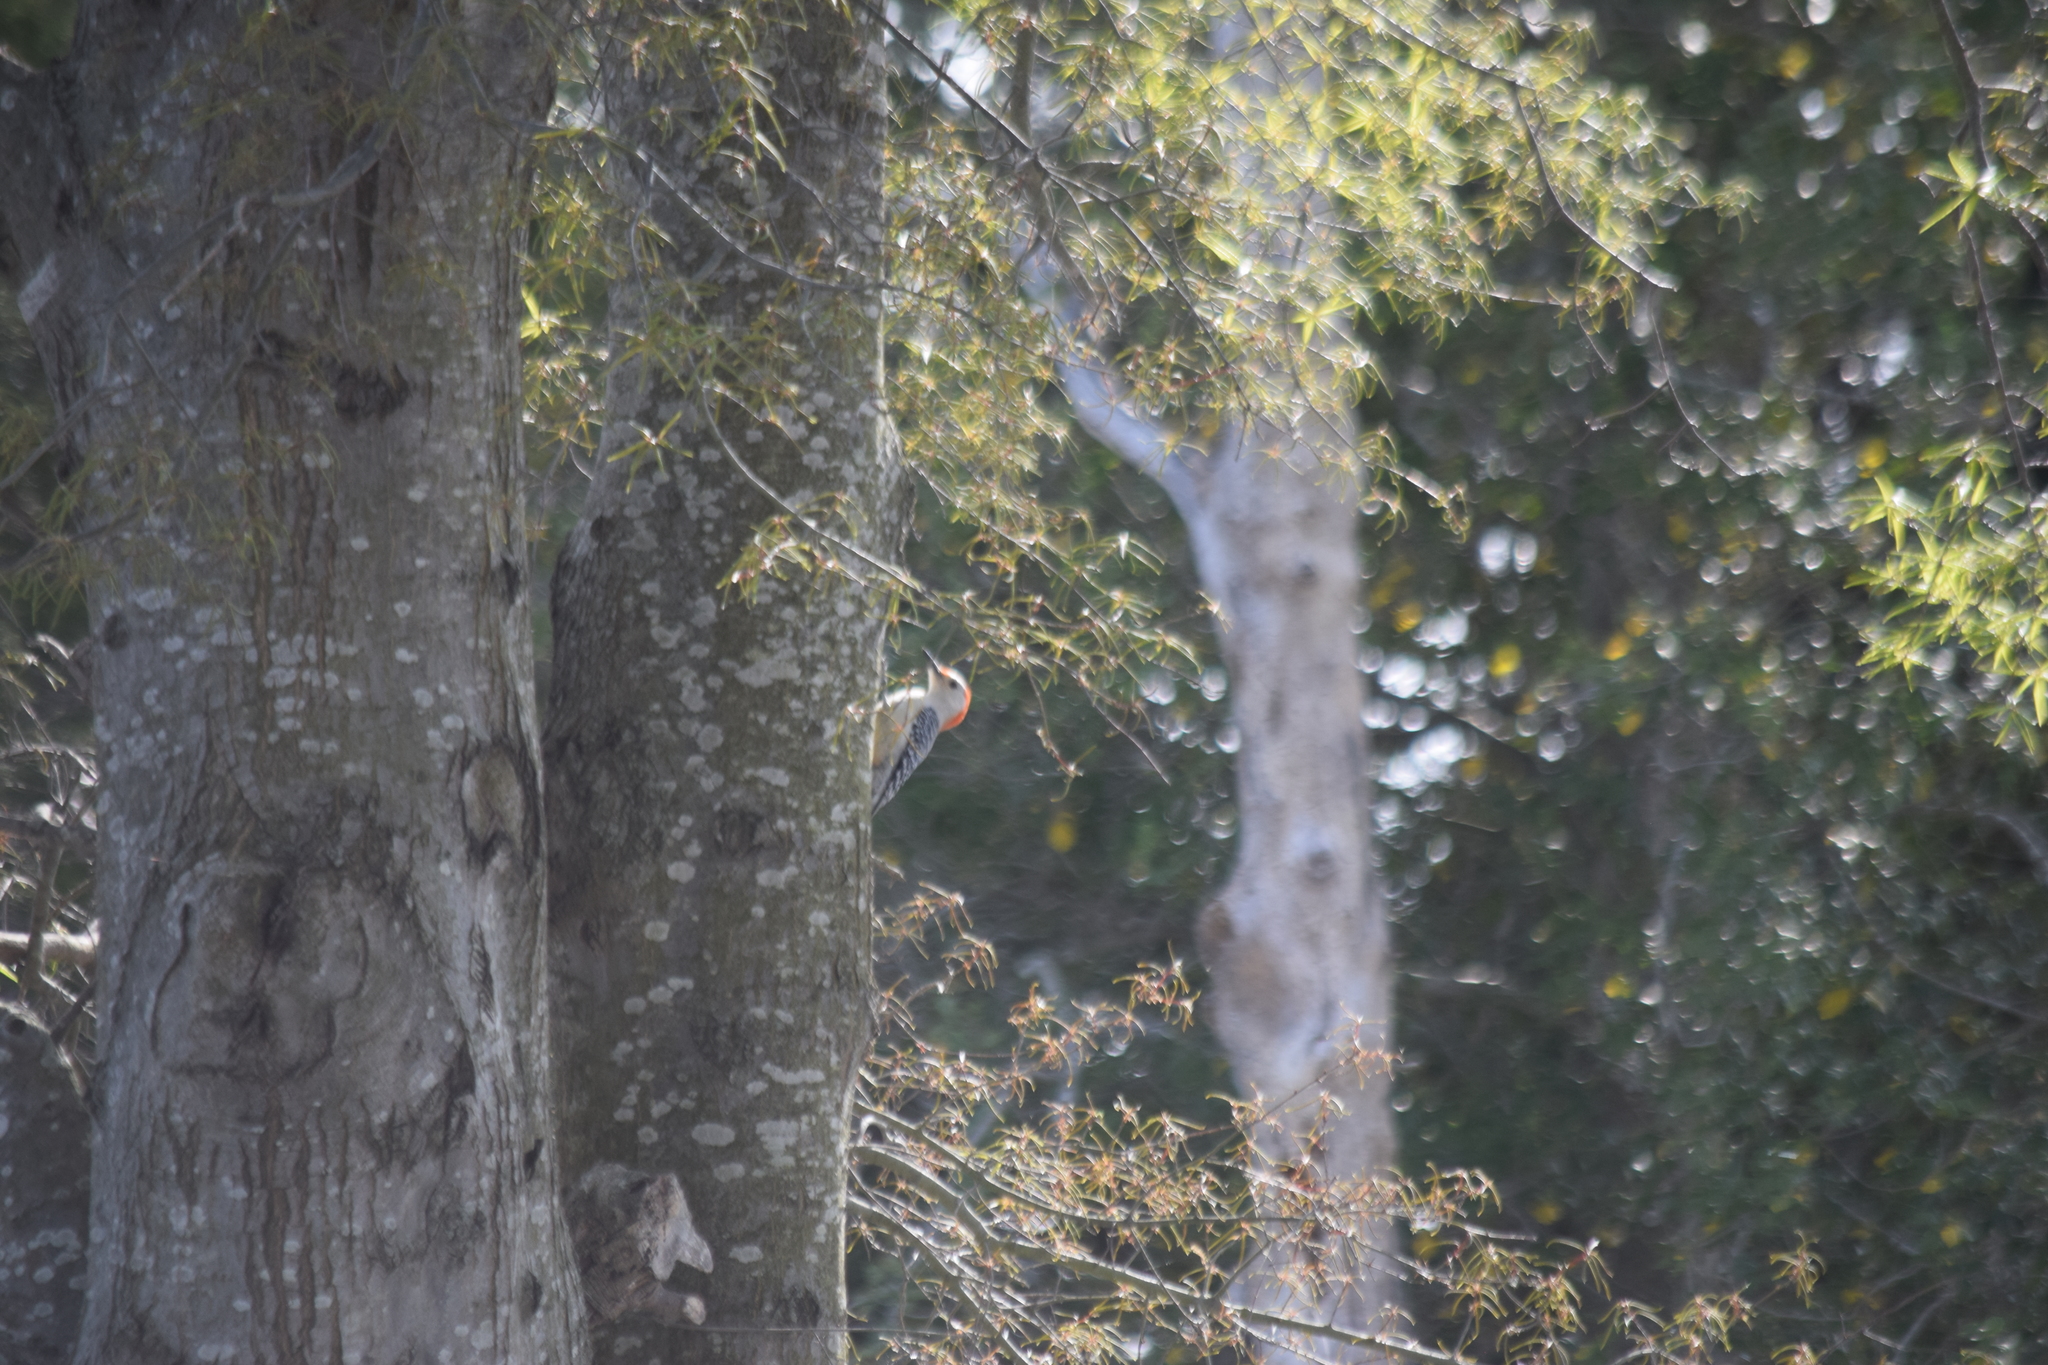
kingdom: Animalia
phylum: Chordata
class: Aves
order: Piciformes
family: Picidae
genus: Melanerpes
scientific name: Melanerpes carolinus
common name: Red-bellied woodpecker
